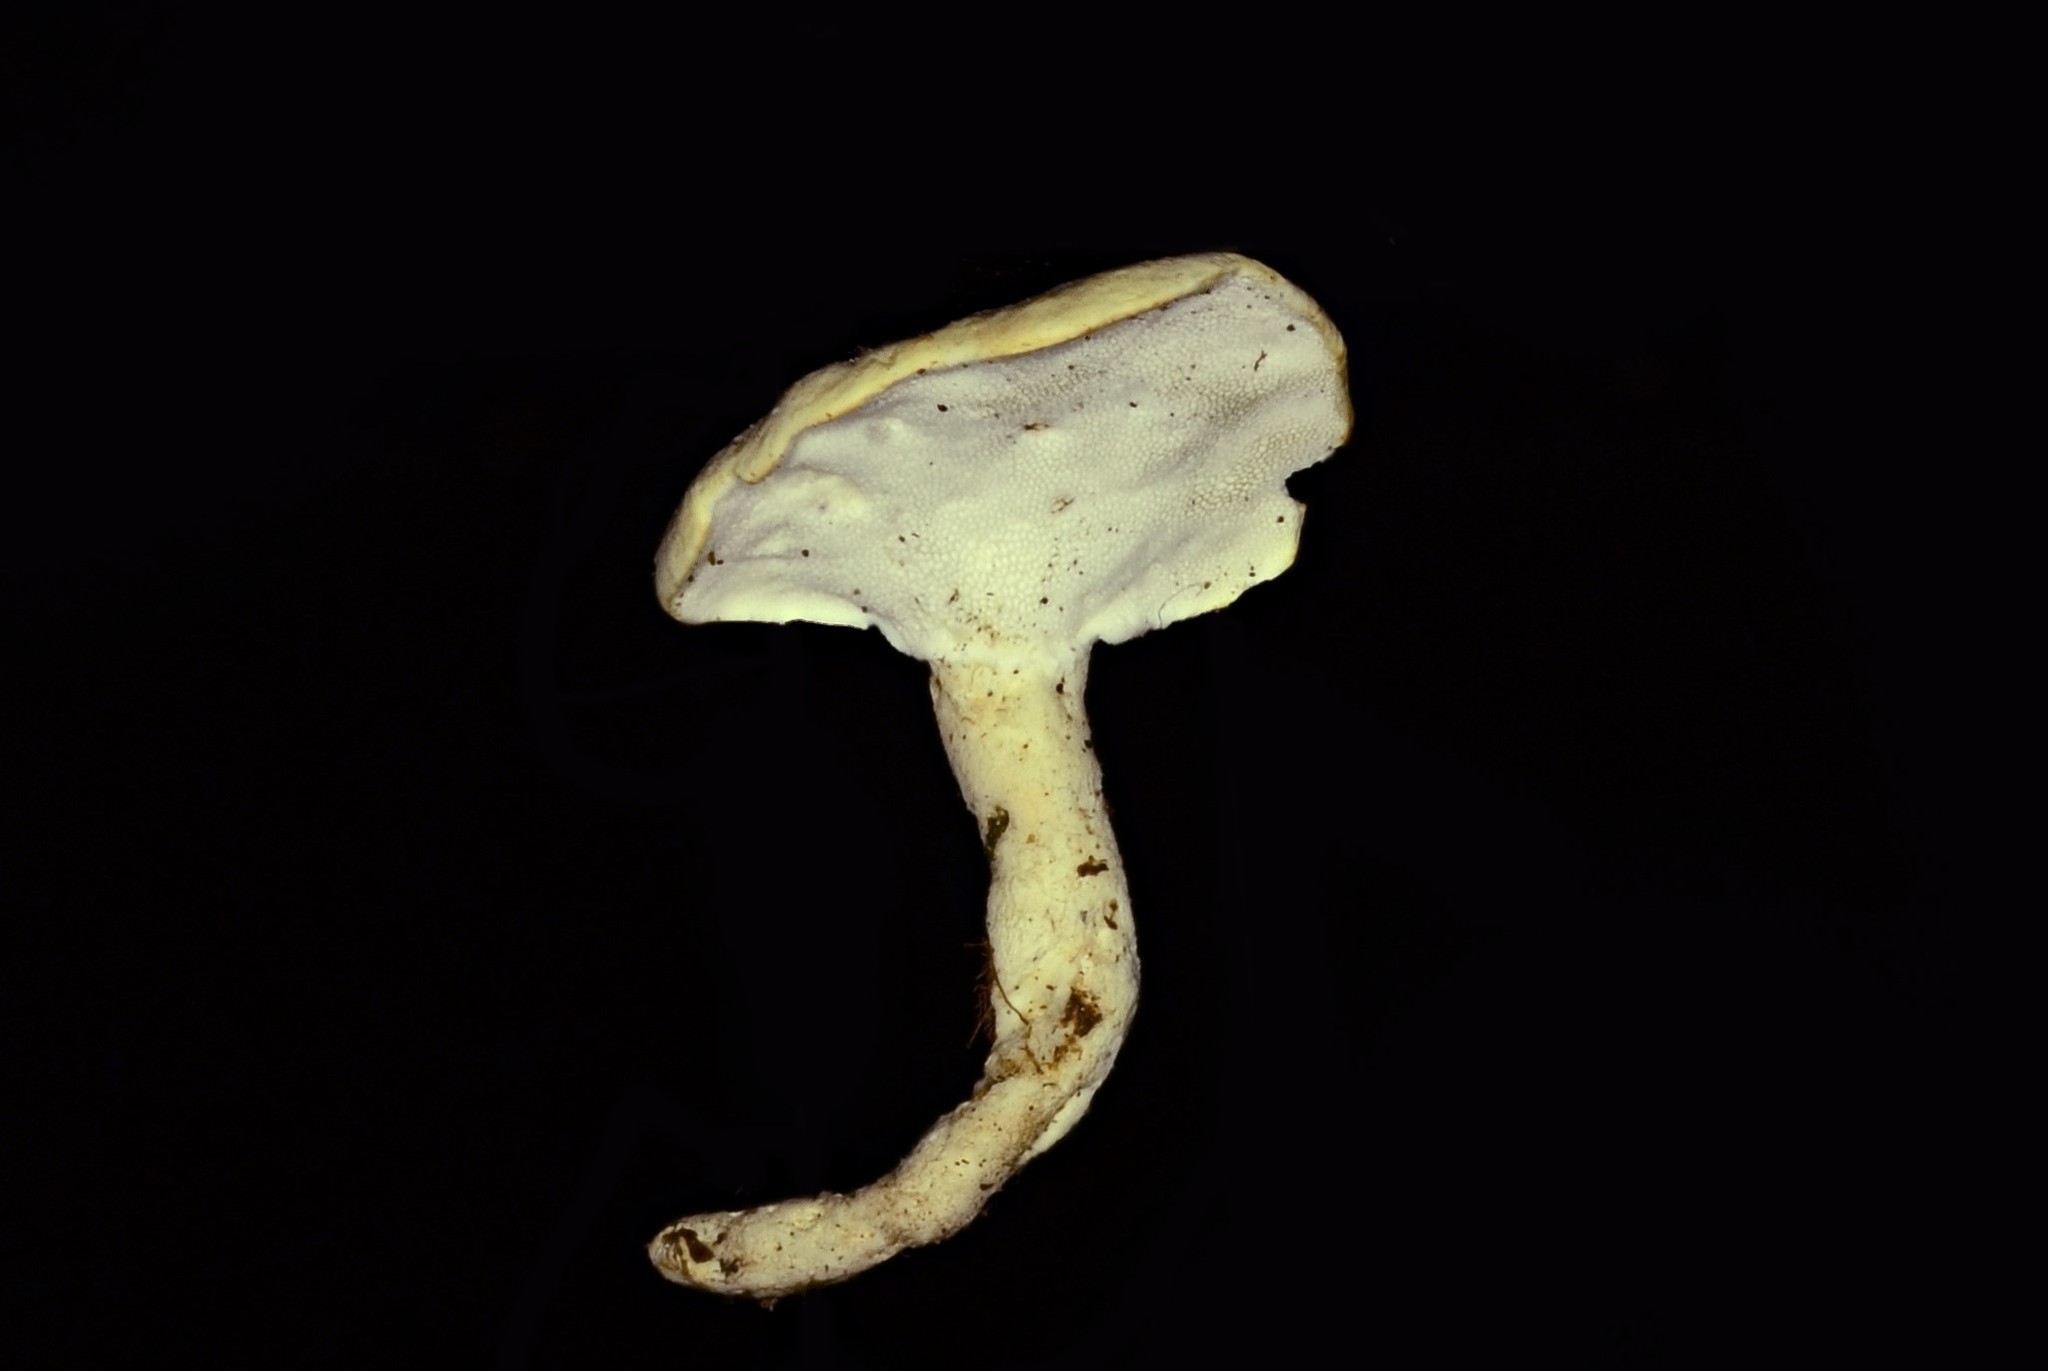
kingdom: Fungi
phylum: Basidiomycota
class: Agaricomycetes
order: Polyporales
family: Steccherinaceae
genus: Loweomyces
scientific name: Loweomyces fractipes
